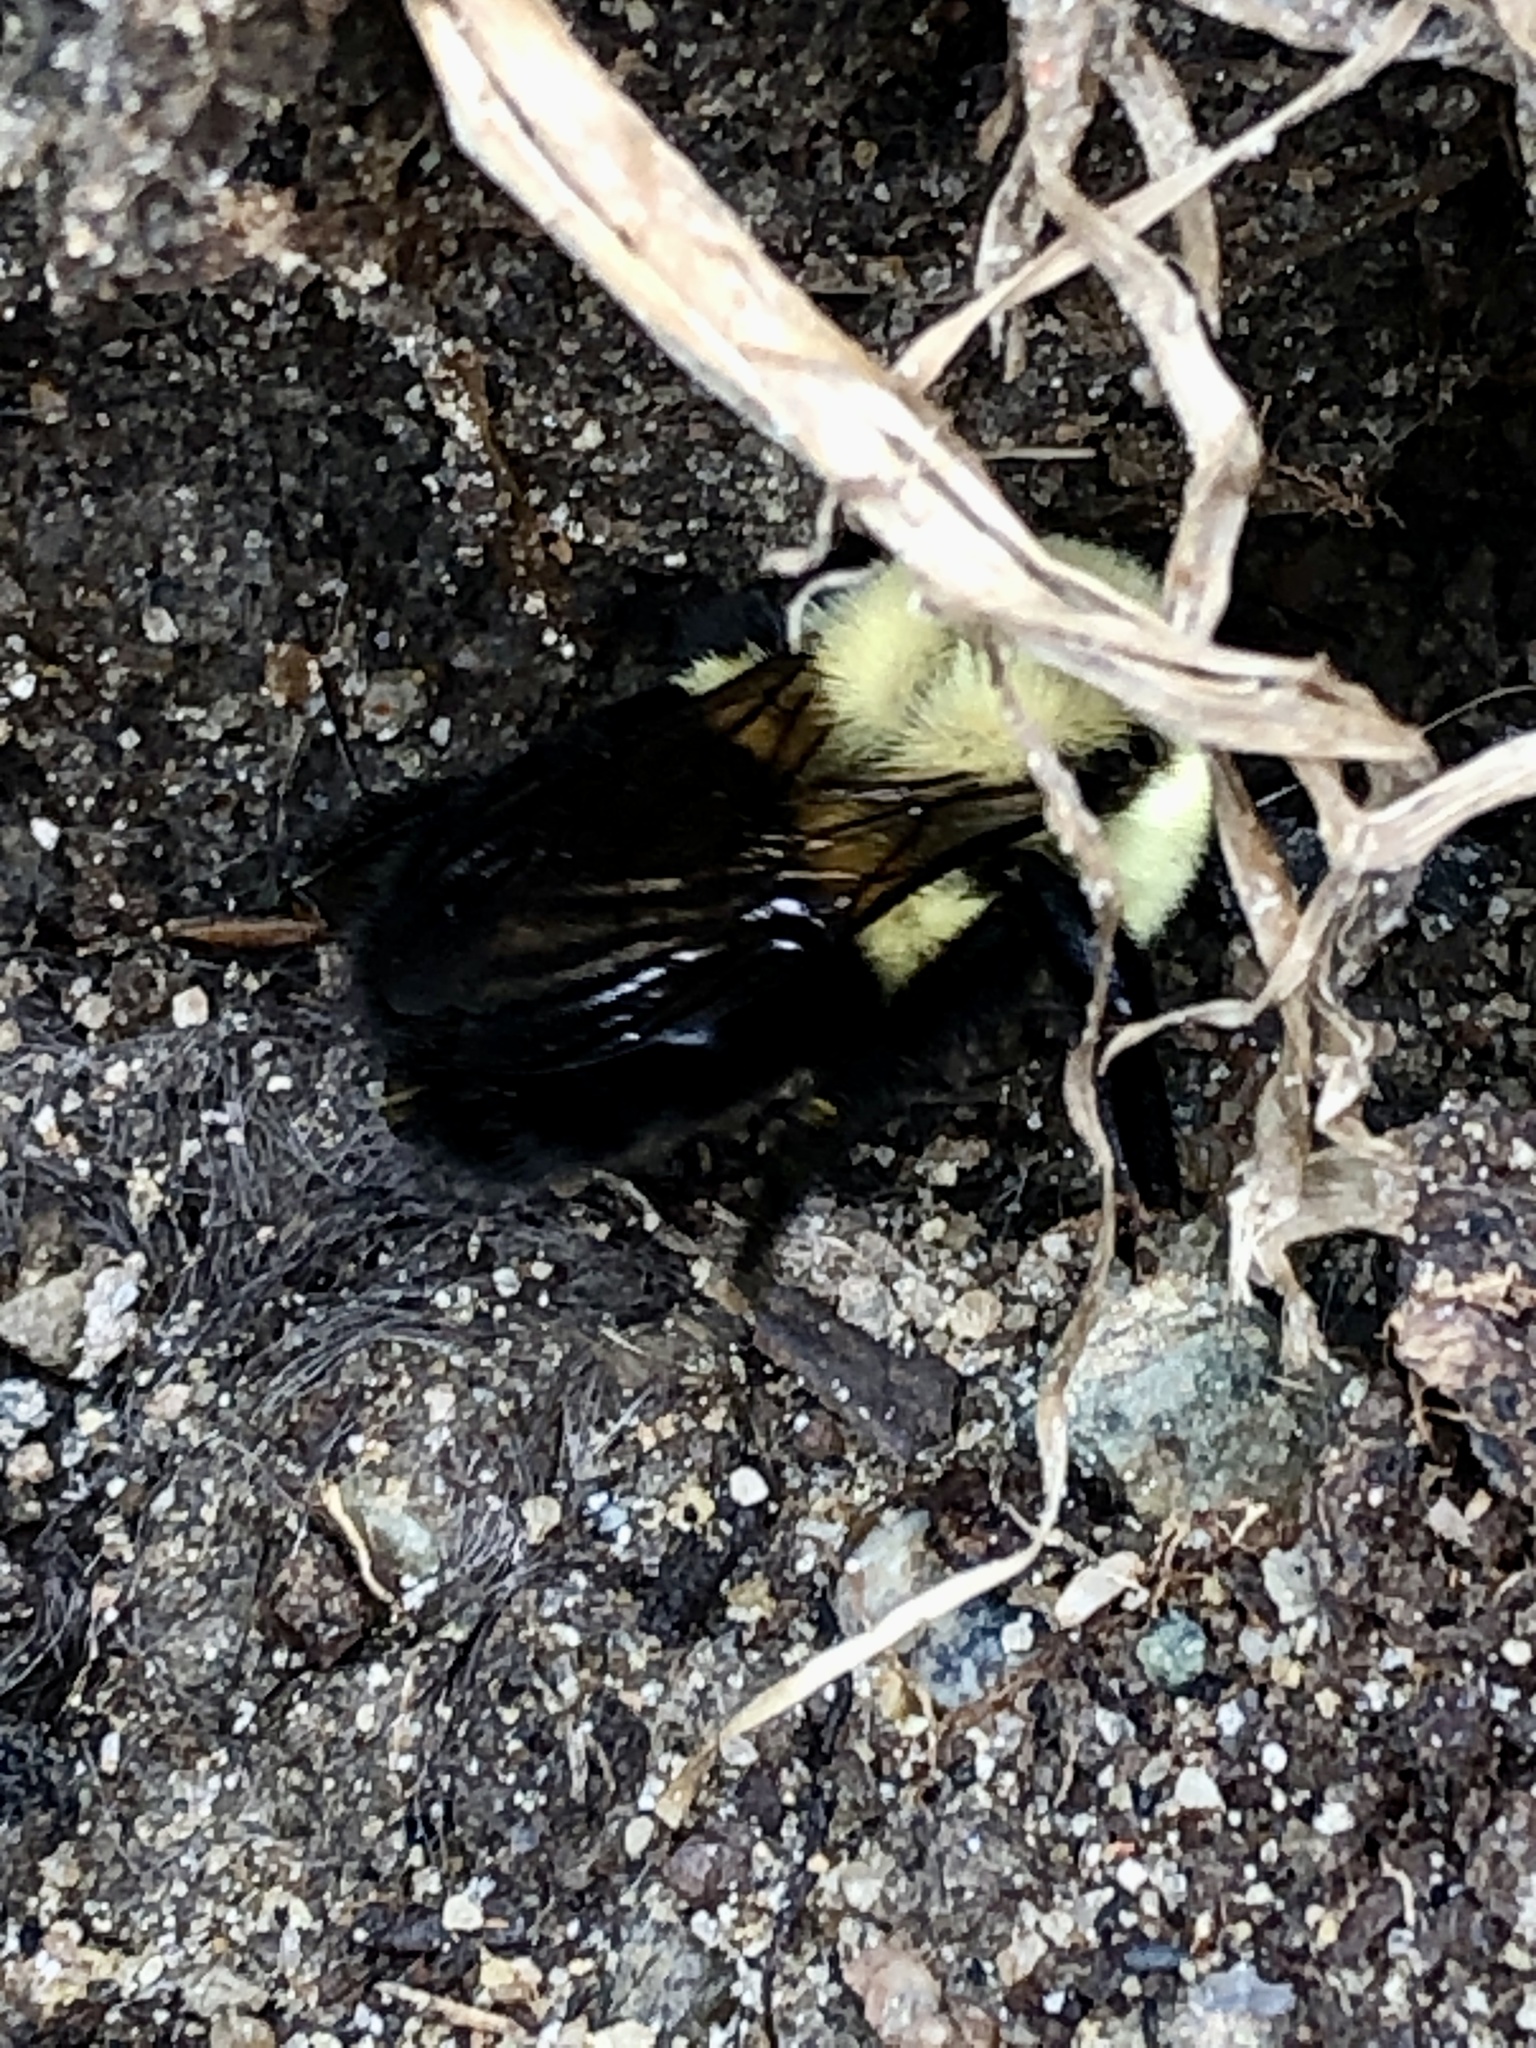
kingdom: Animalia
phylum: Arthropoda
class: Insecta
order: Hymenoptera
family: Apidae
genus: Bombus
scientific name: Bombus impatiens
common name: Common eastern bumble bee
